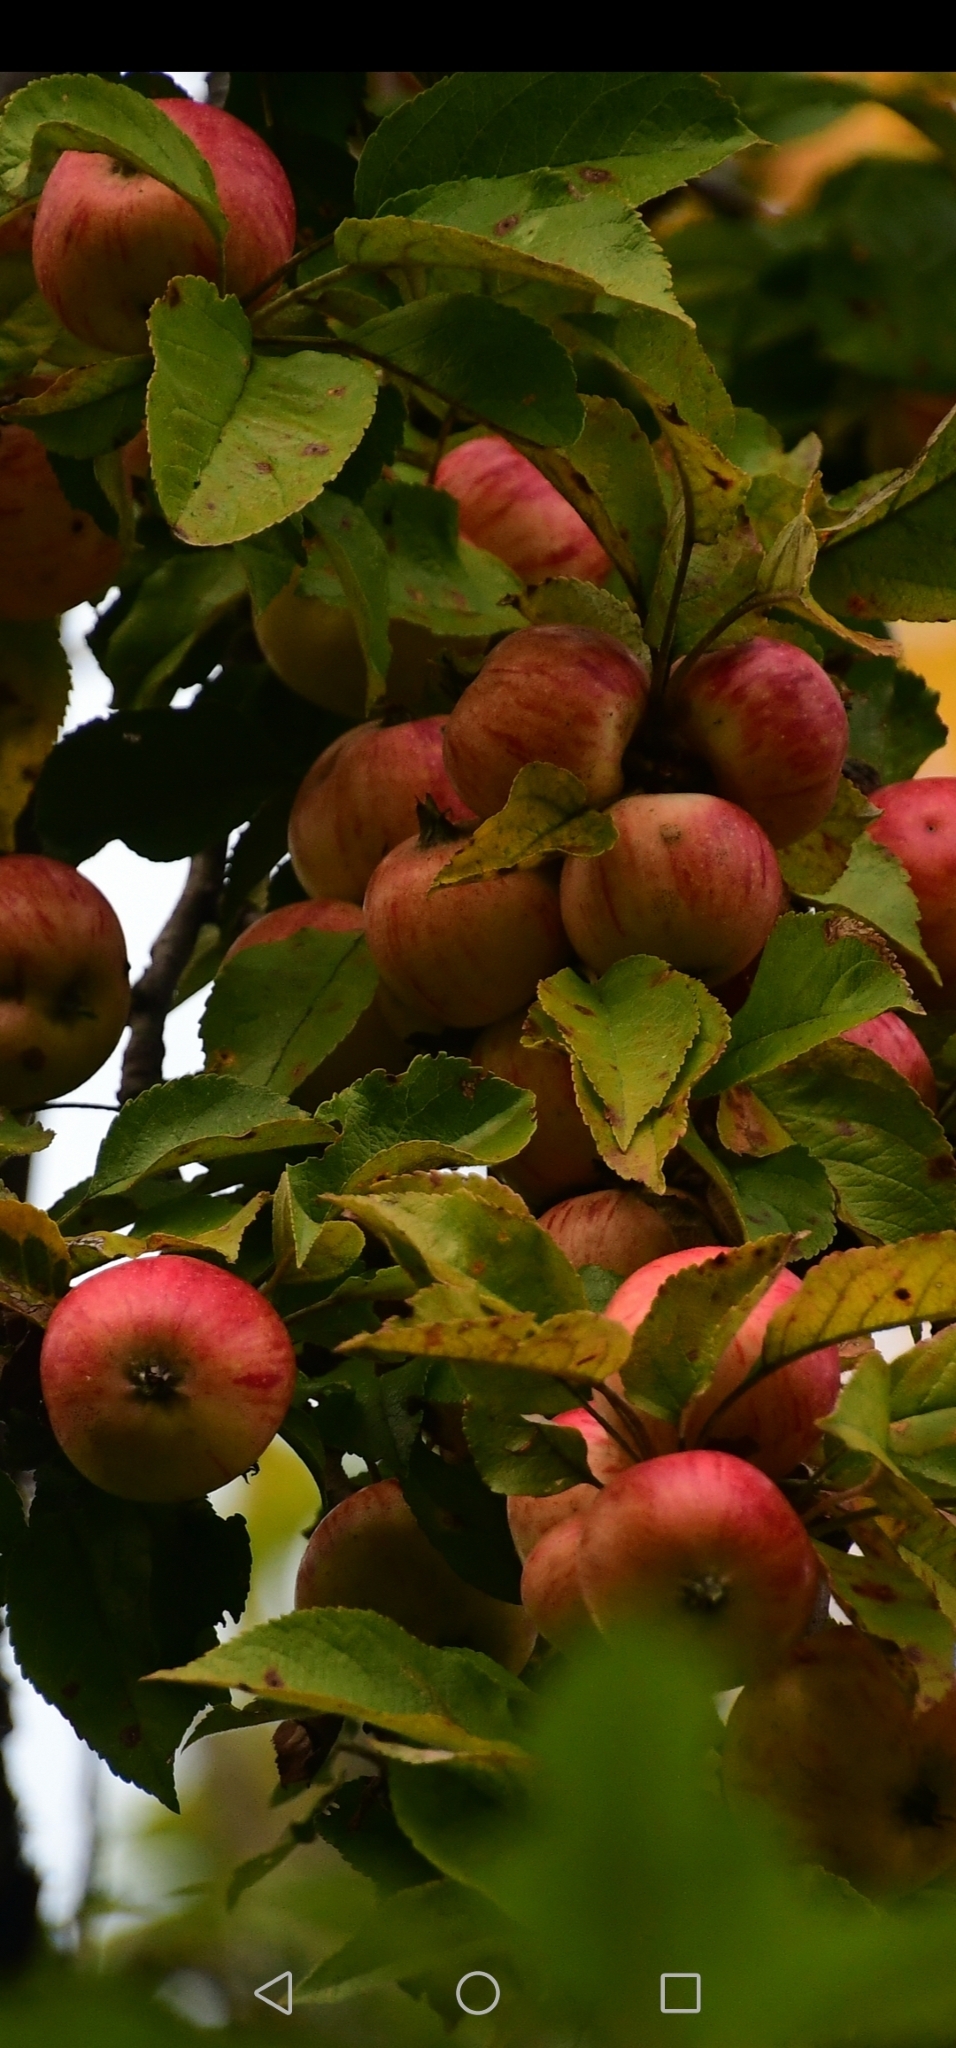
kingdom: Plantae
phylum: Tracheophyta
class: Magnoliopsida
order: Rosales
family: Rosaceae
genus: Malus
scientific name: Malus domestica
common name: Apple
